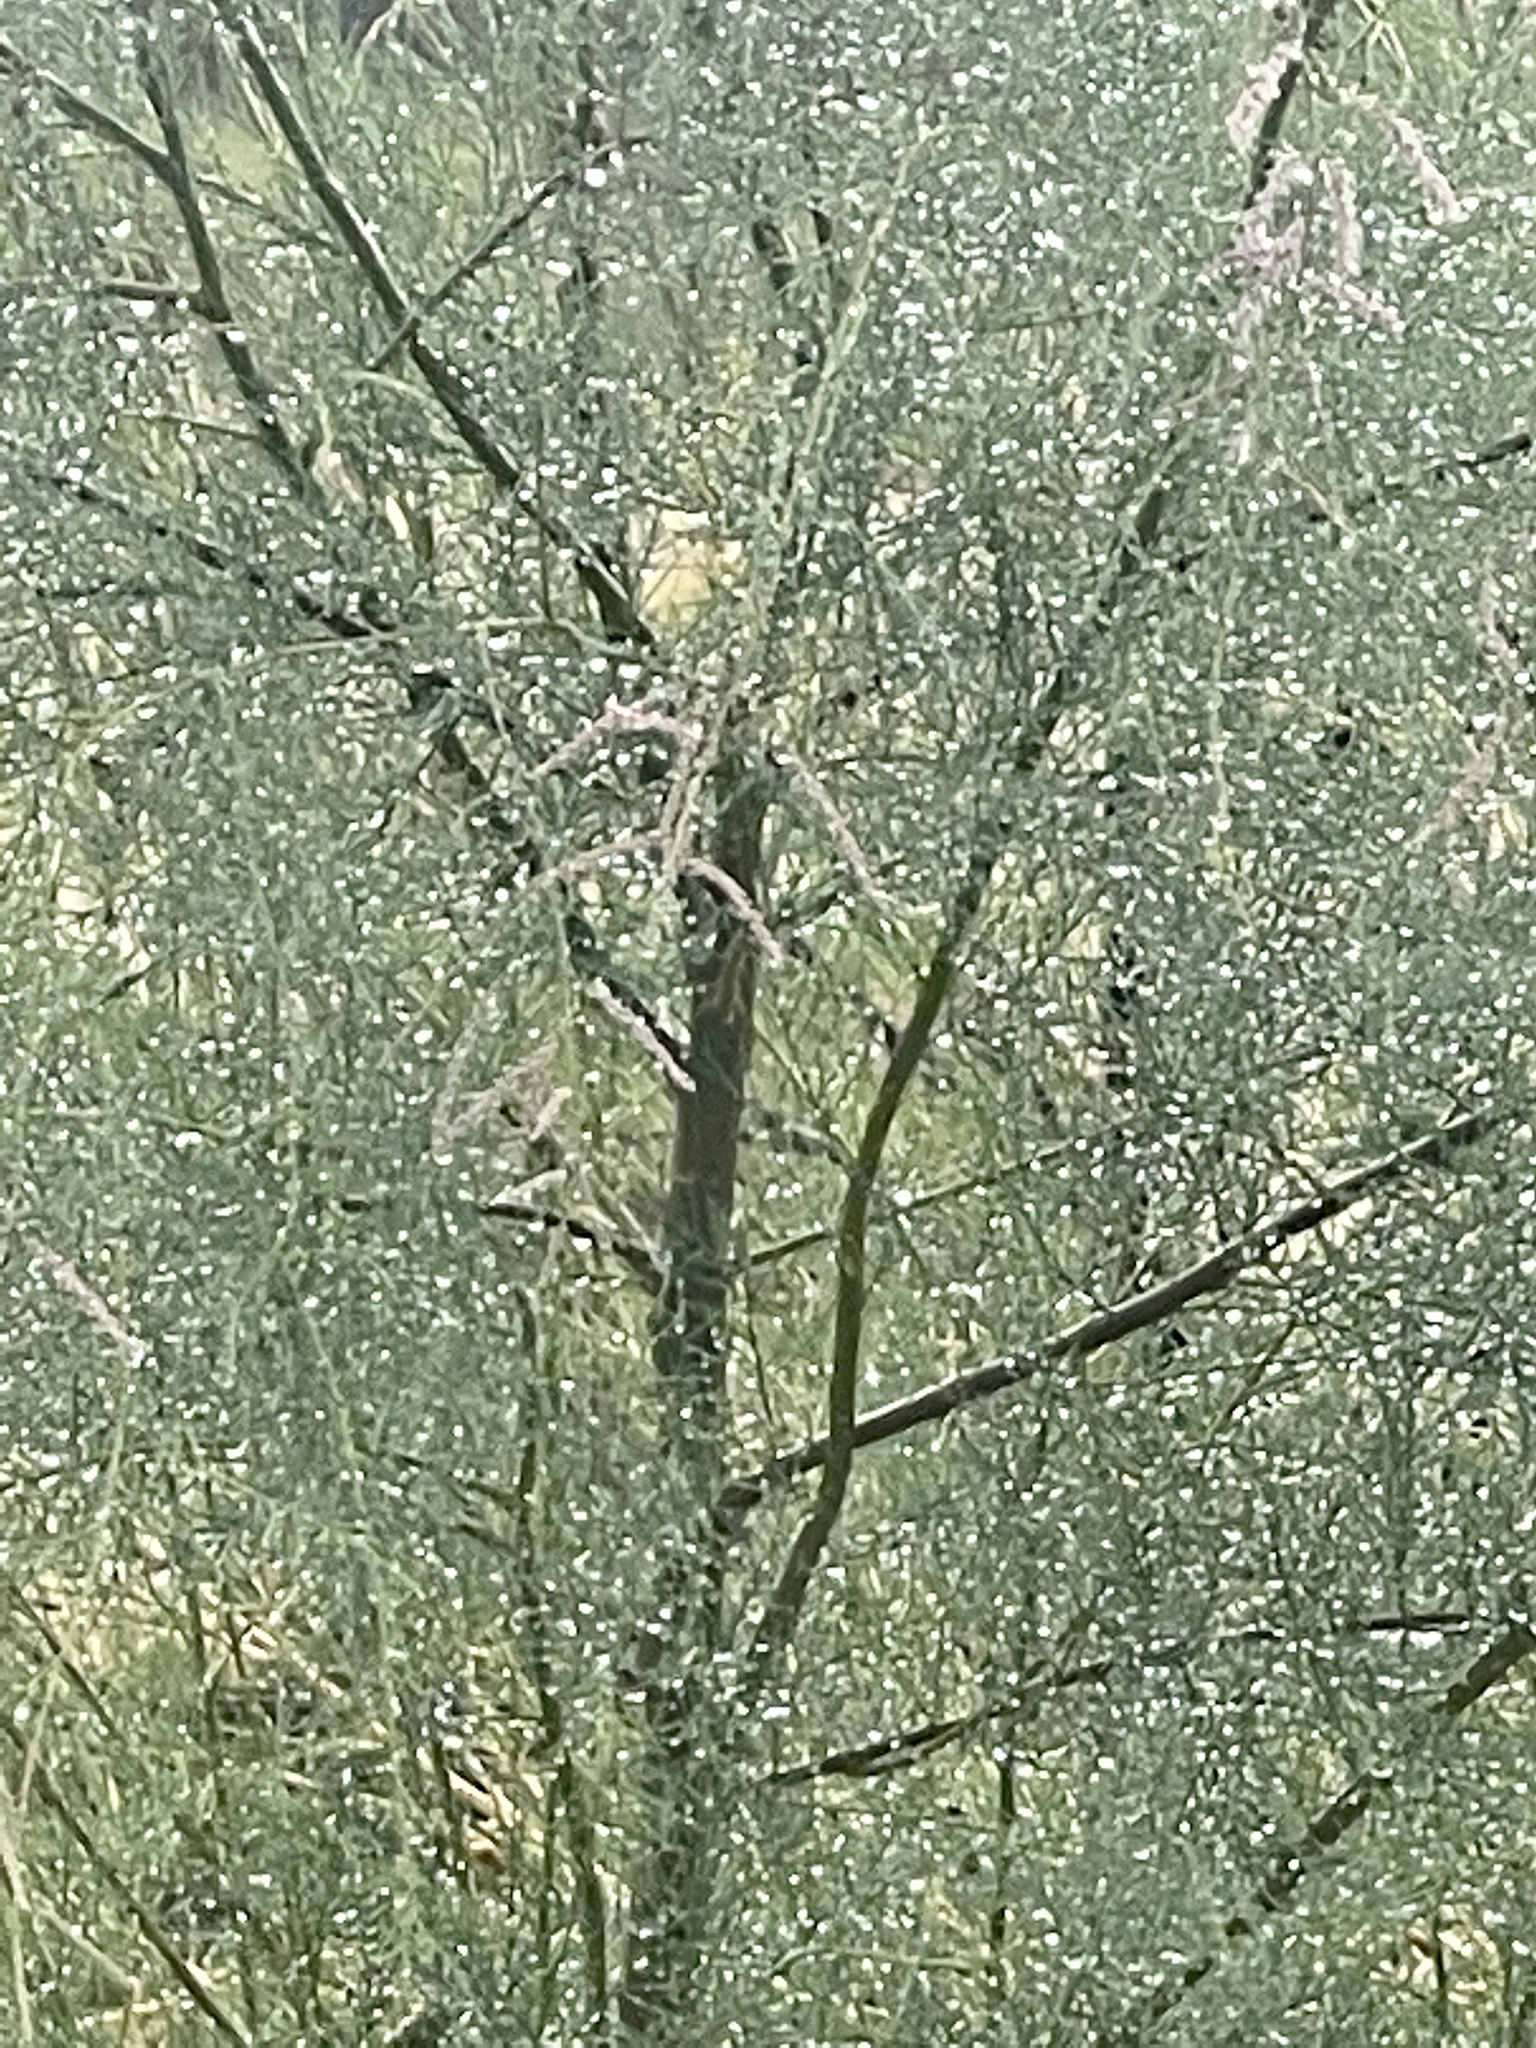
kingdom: Plantae
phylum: Tracheophyta
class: Magnoliopsida
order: Caryophyllales
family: Tamaricaceae
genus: Tamarix
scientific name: Tamarix ramosissima
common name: Pink tamarisk
